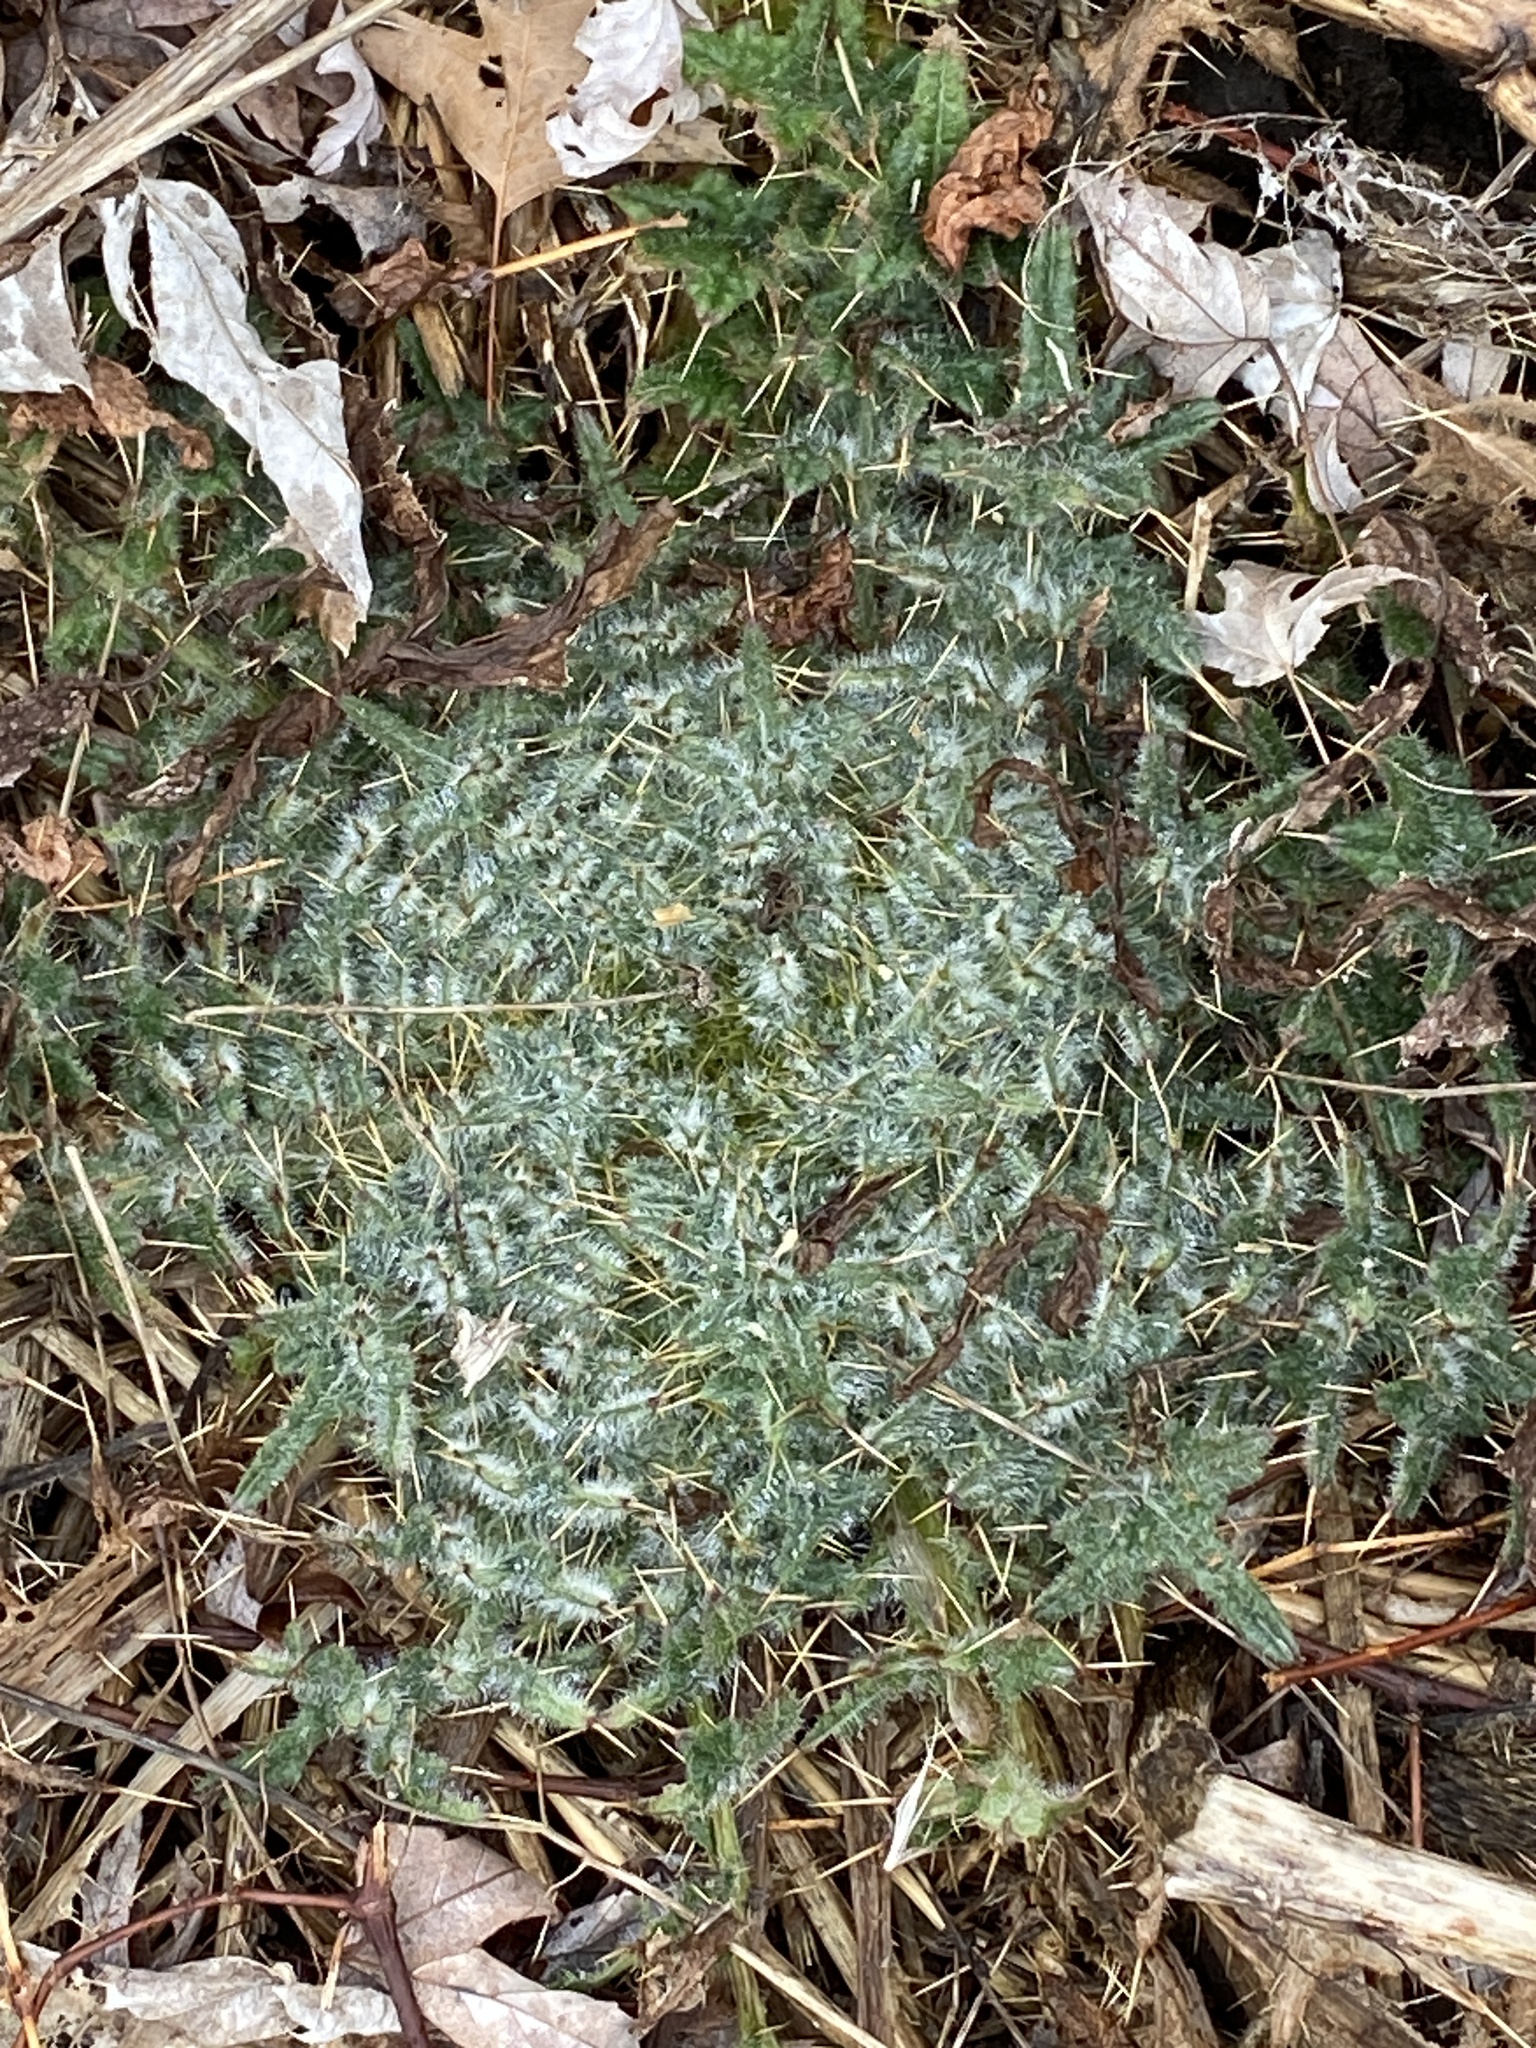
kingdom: Plantae
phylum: Tracheophyta
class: Magnoliopsida
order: Asterales
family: Asteraceae
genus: Cirsium
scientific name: Cirsium vulgare
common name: Bull thistle
